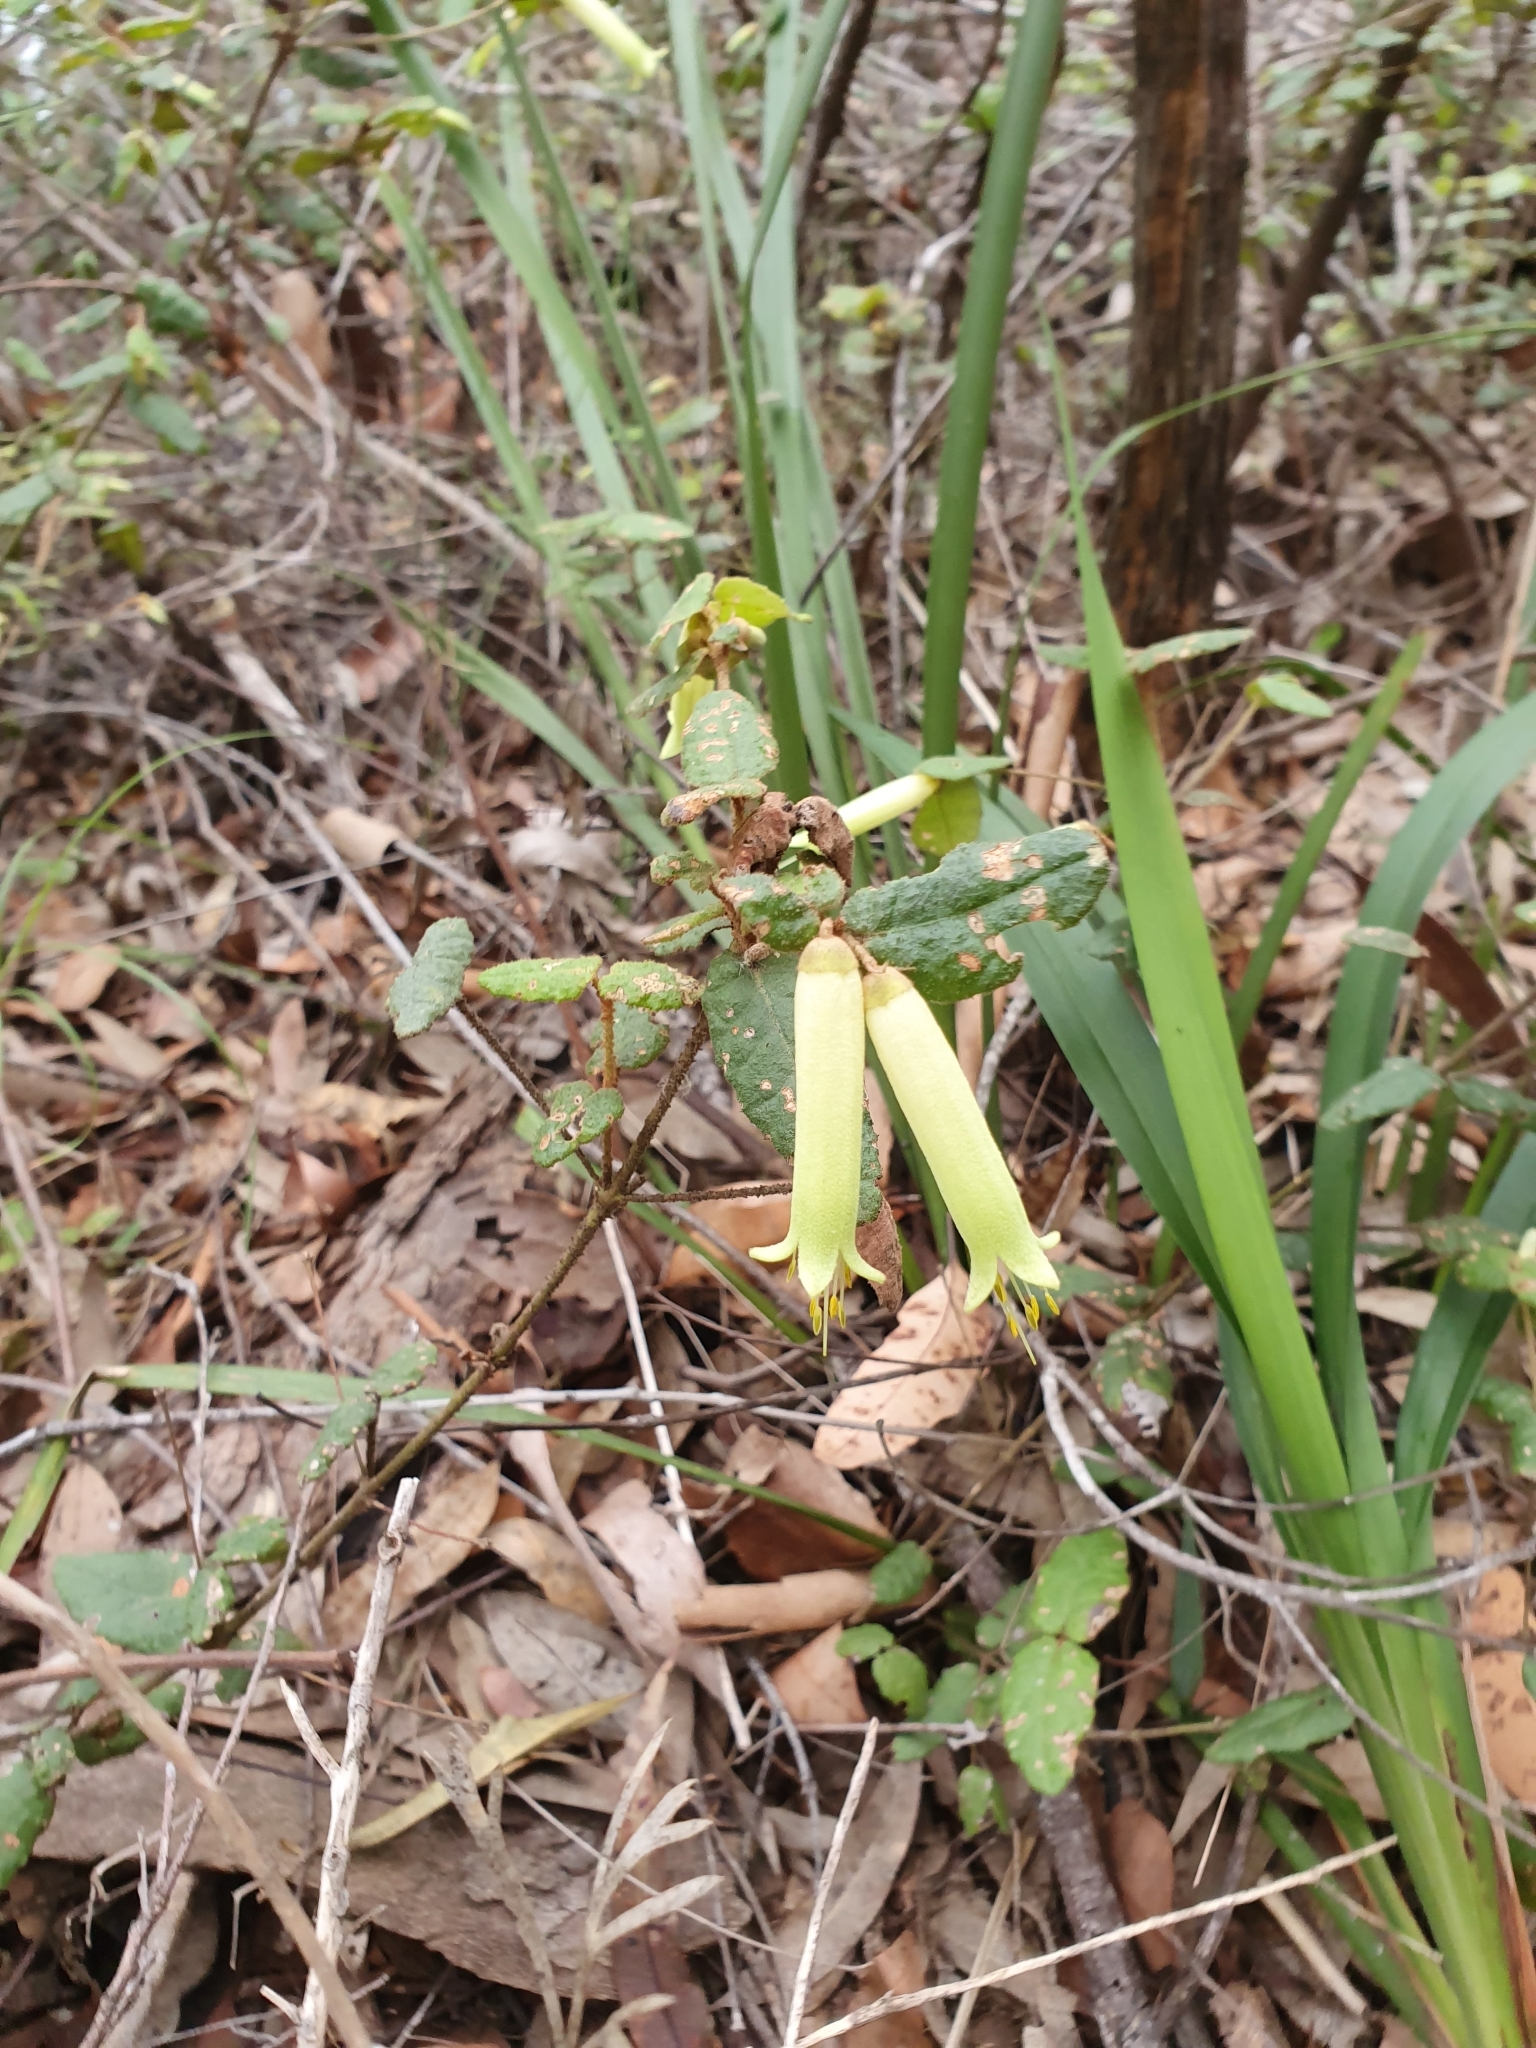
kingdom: Plantae
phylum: Tracheophyta
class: Magnoliopsida
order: Sapindales
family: Rutaceae
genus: Correa
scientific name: Correa reflexa
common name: Common correa
